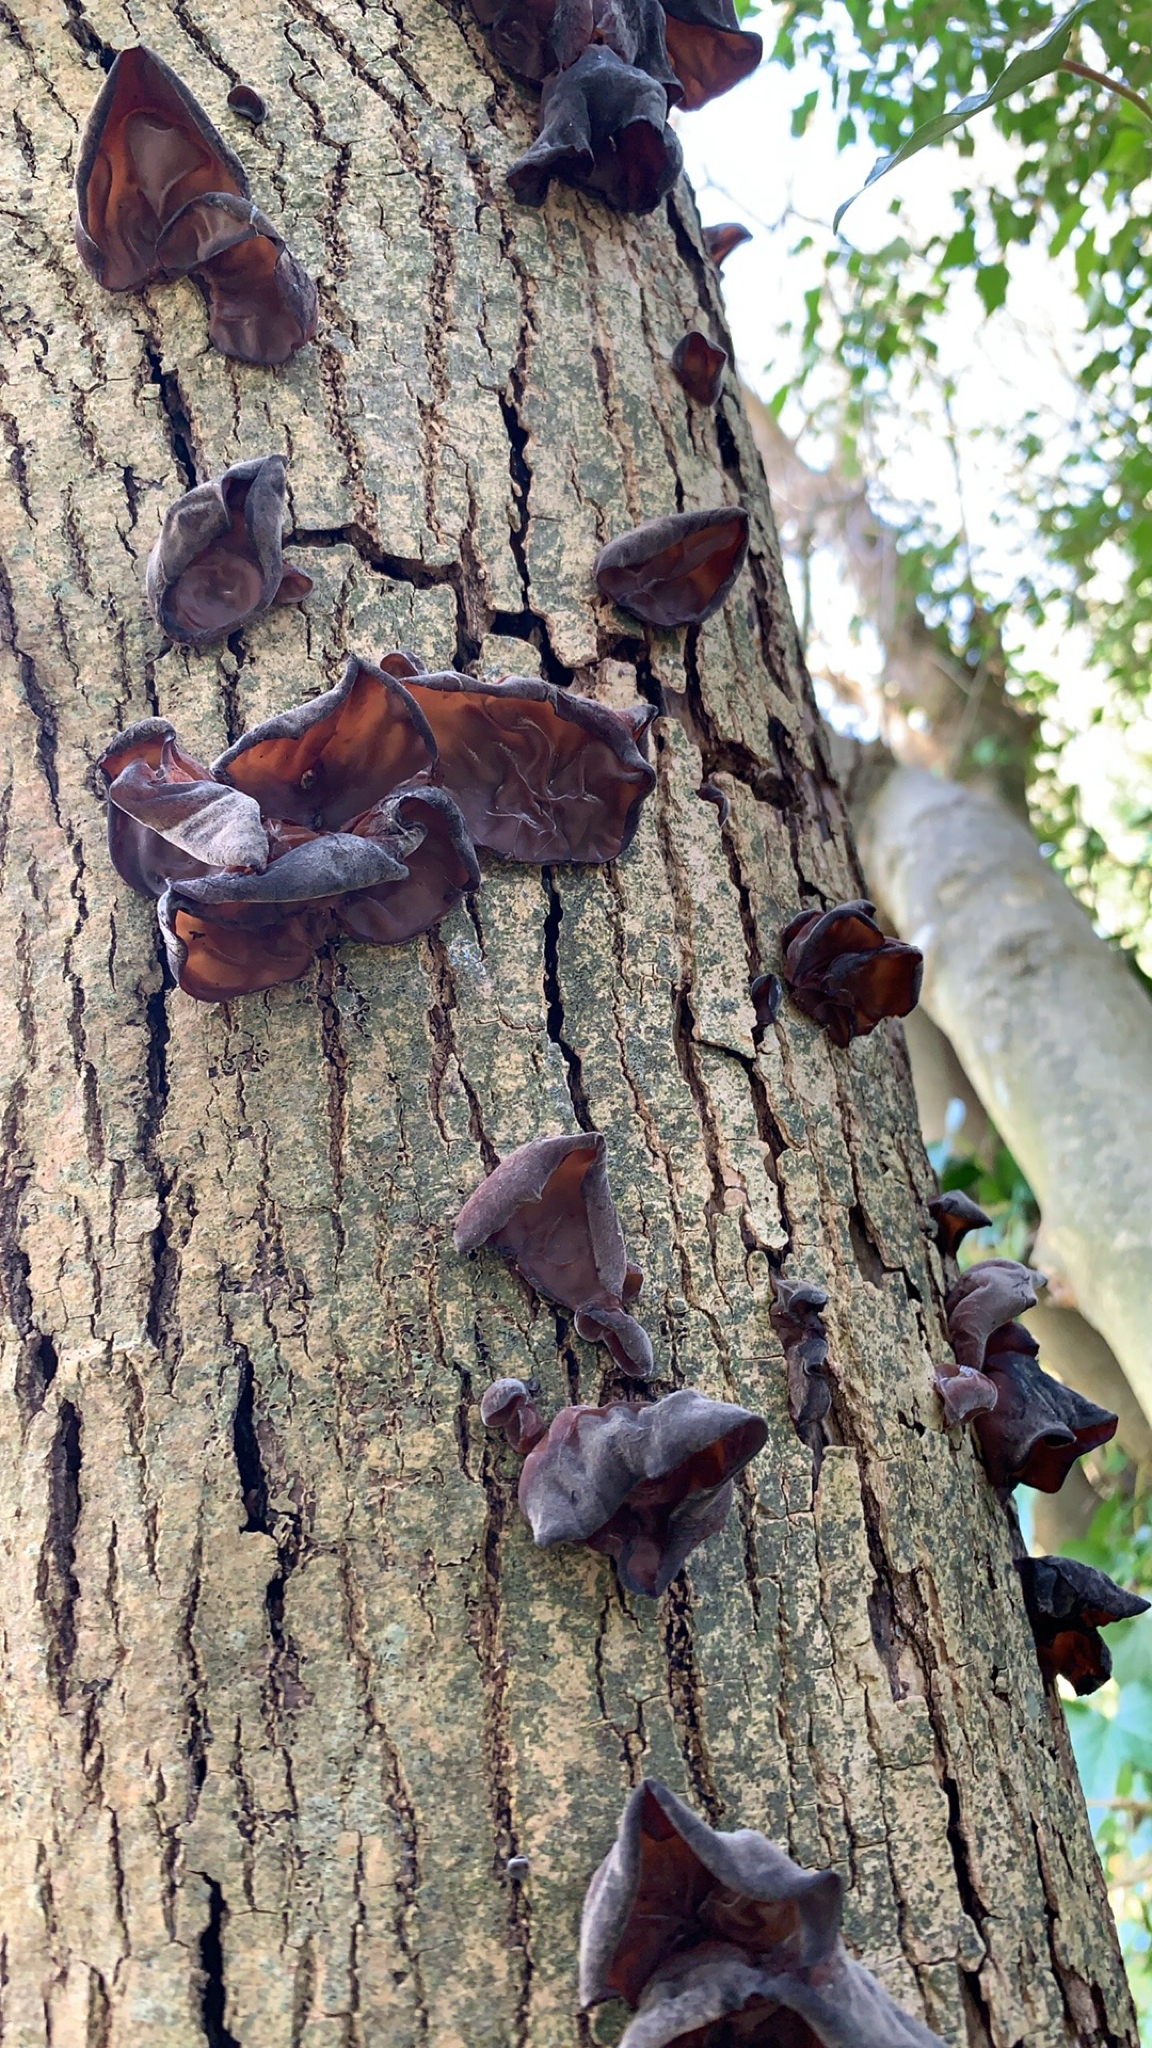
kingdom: Fungi
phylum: Basidiomycota
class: Agaricomycetes
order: Auriculariales
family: Auriculariaceae
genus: Auricularia
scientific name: Auricularia auricula-judae
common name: Jelly ear
